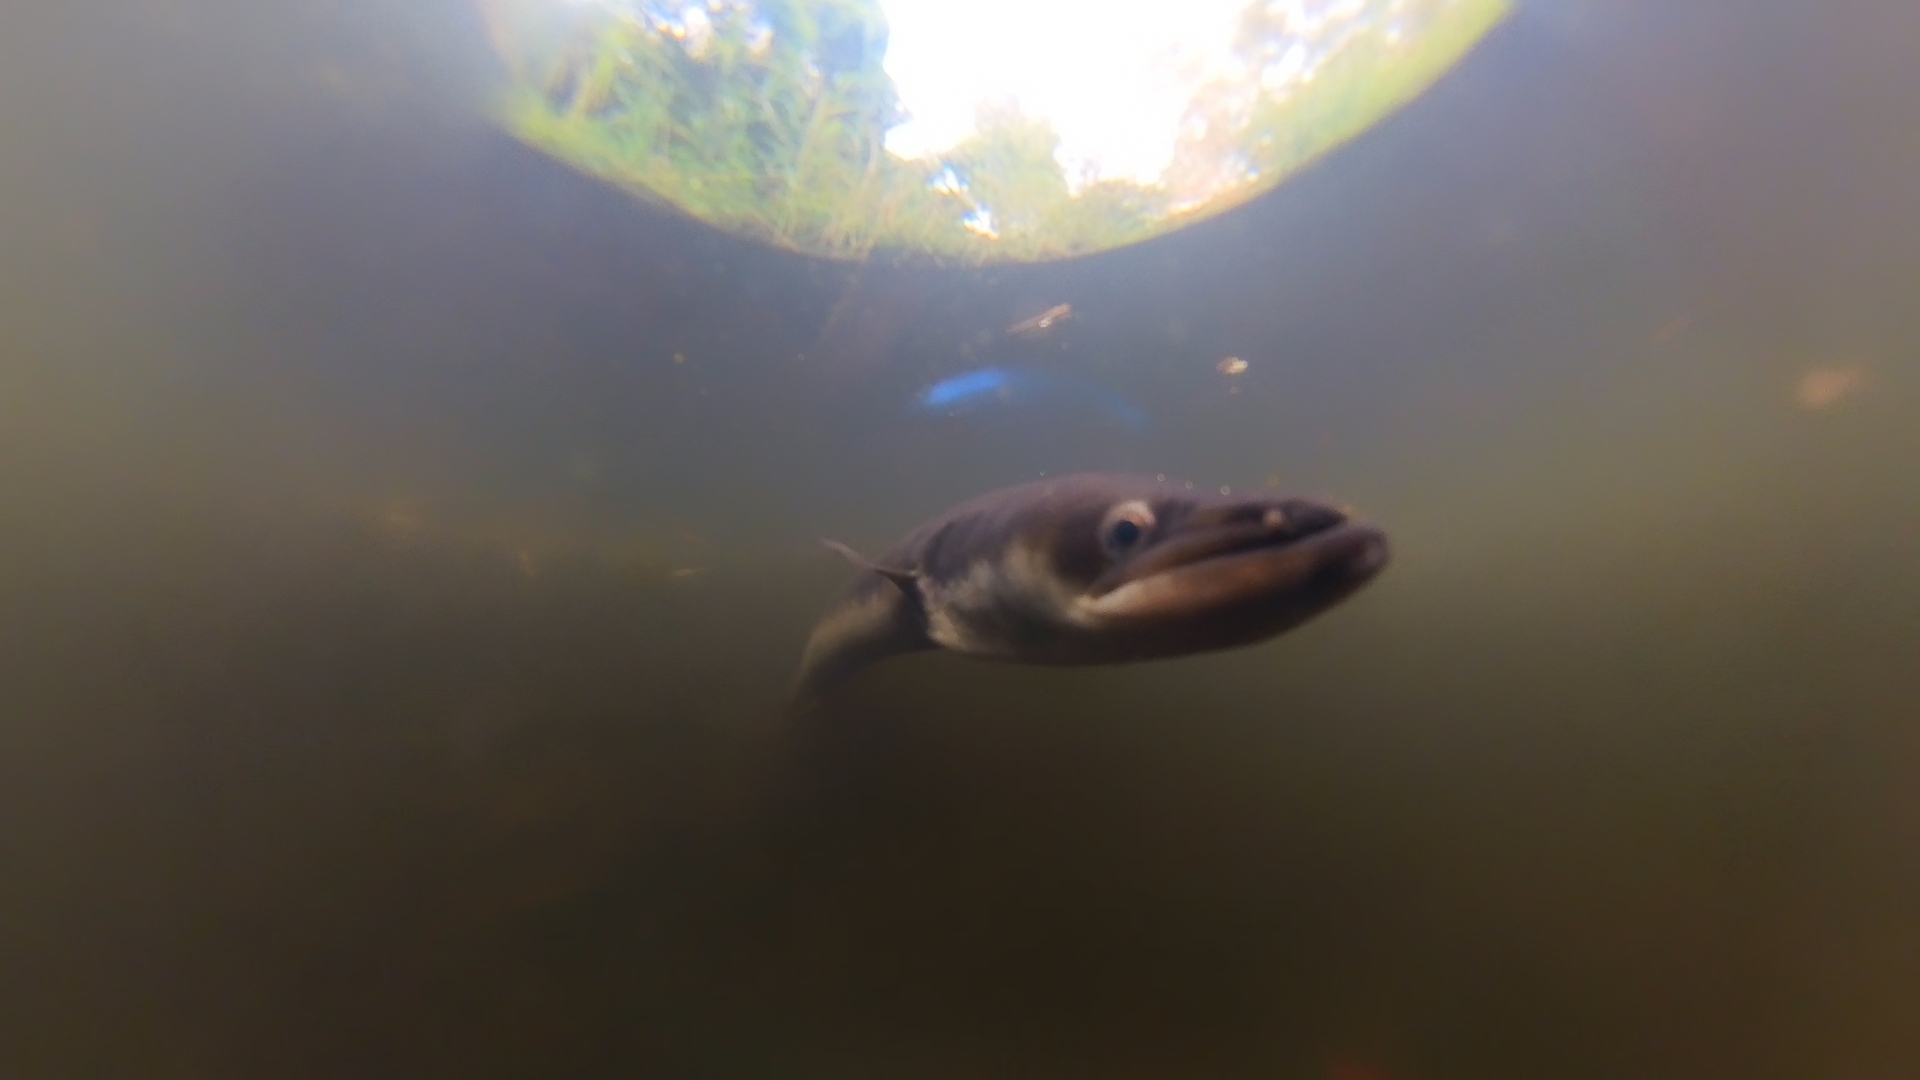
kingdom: Animalia
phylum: Chordata
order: Anguilliformes
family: Anguillidae
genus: Anguilla
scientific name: Anguilla australis
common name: Shortfin eel
